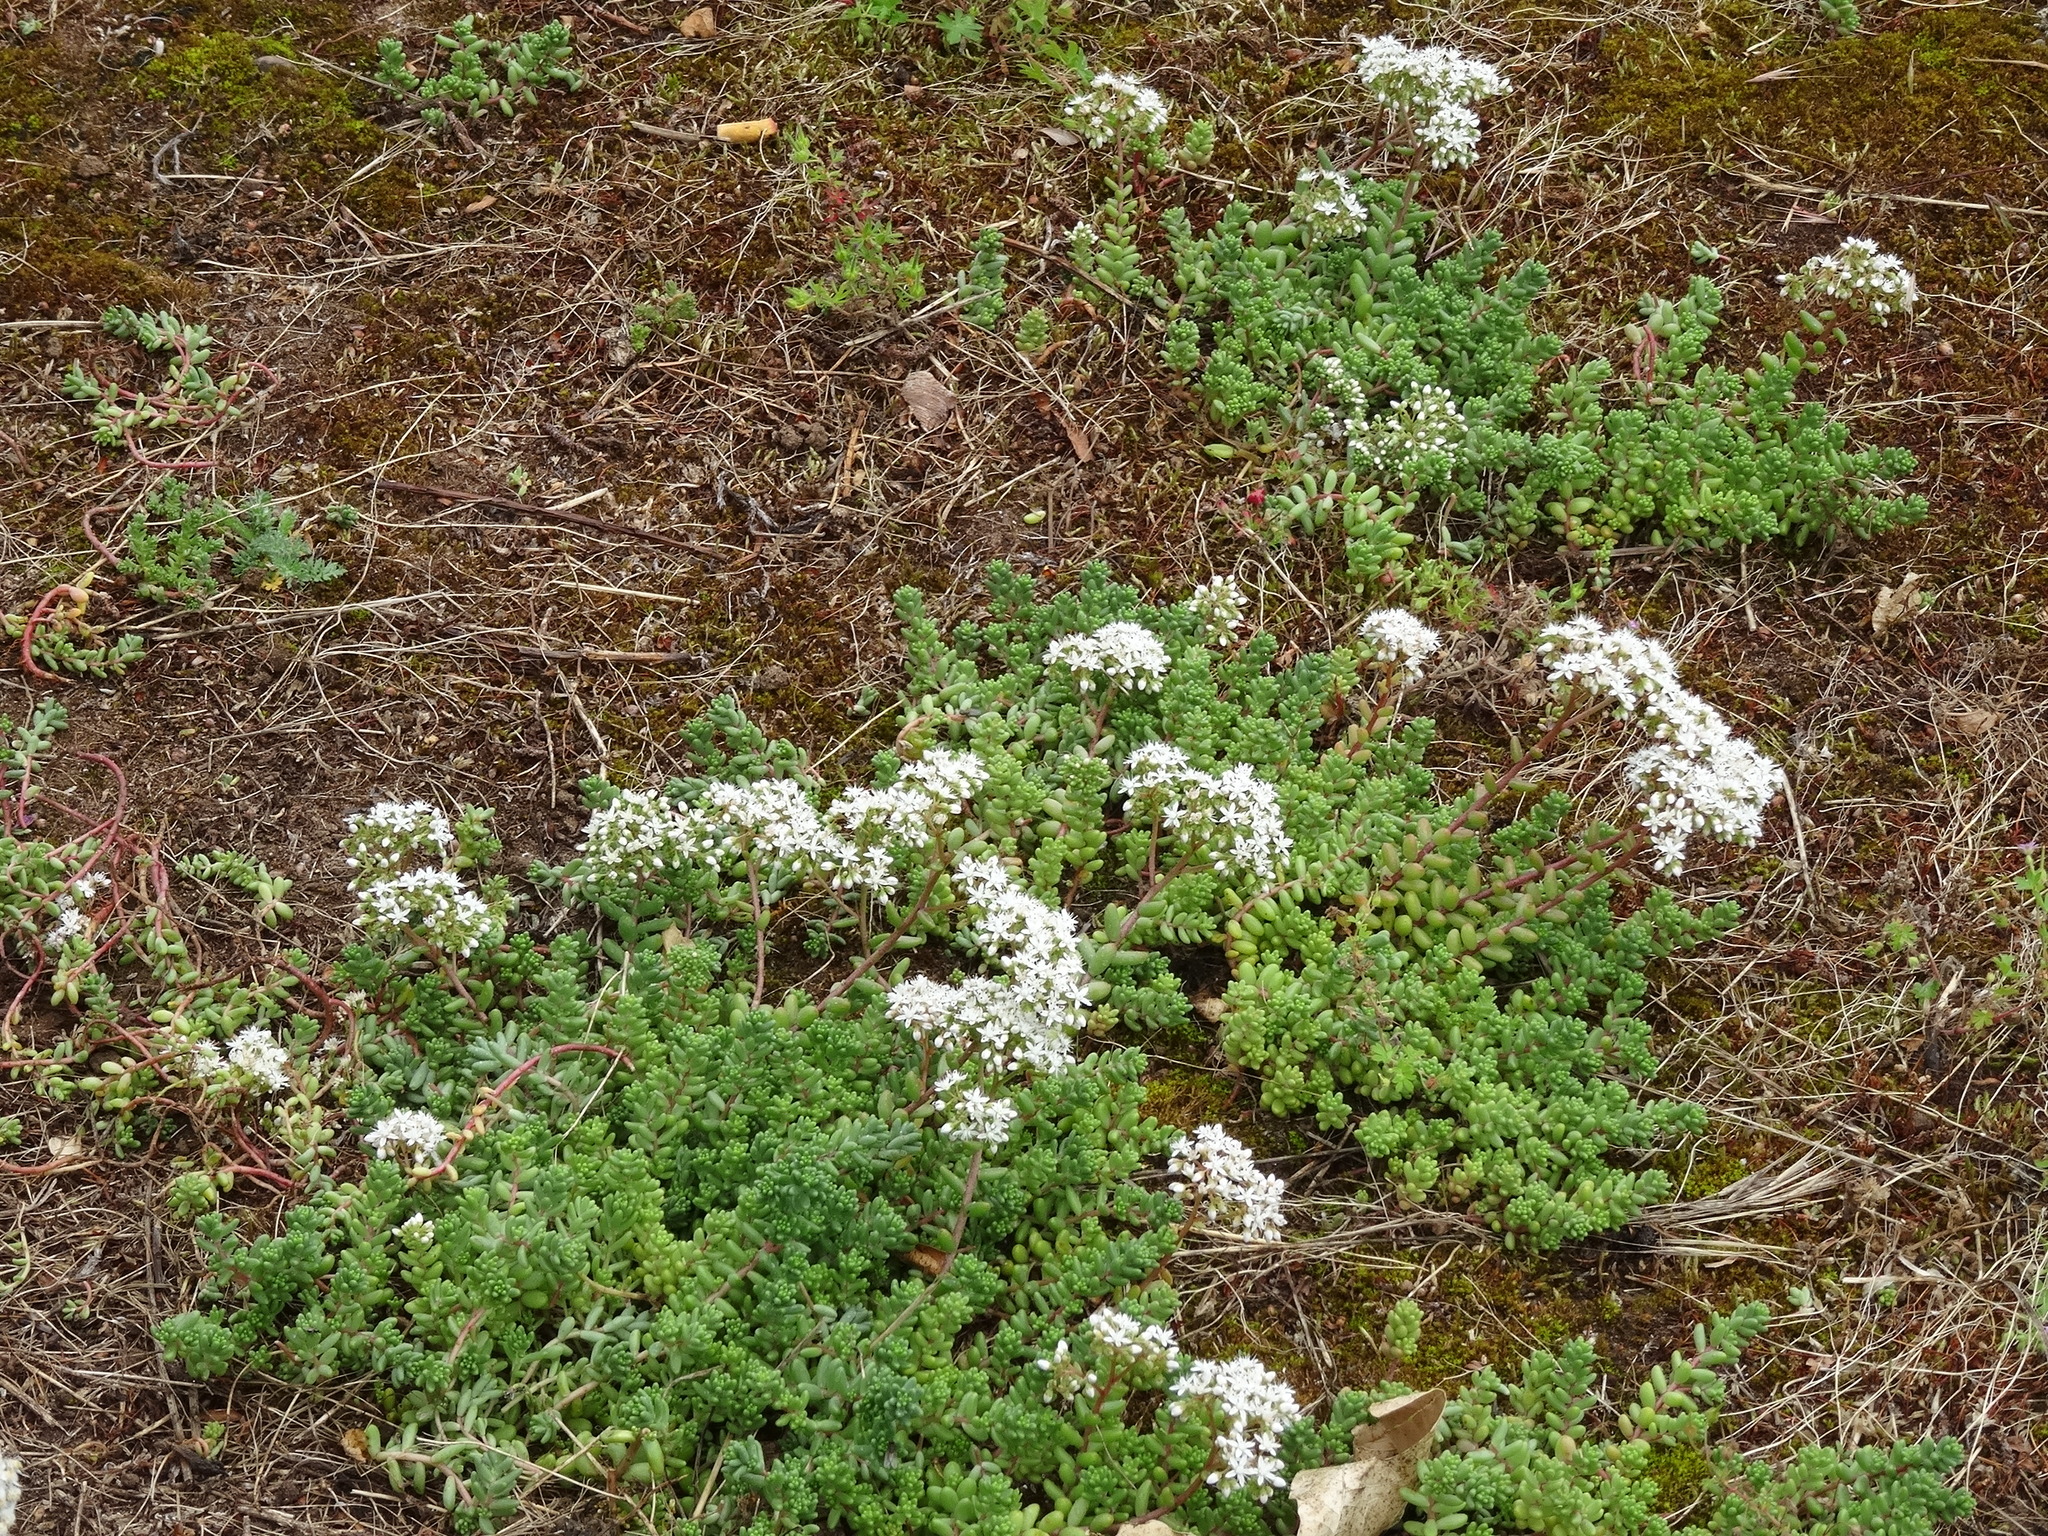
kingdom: Plantae
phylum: Tracheophyta
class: Magnoliopsida
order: Saxifragales
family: Crassulaceae
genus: Sedum
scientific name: Sedum album
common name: White stonecrop
